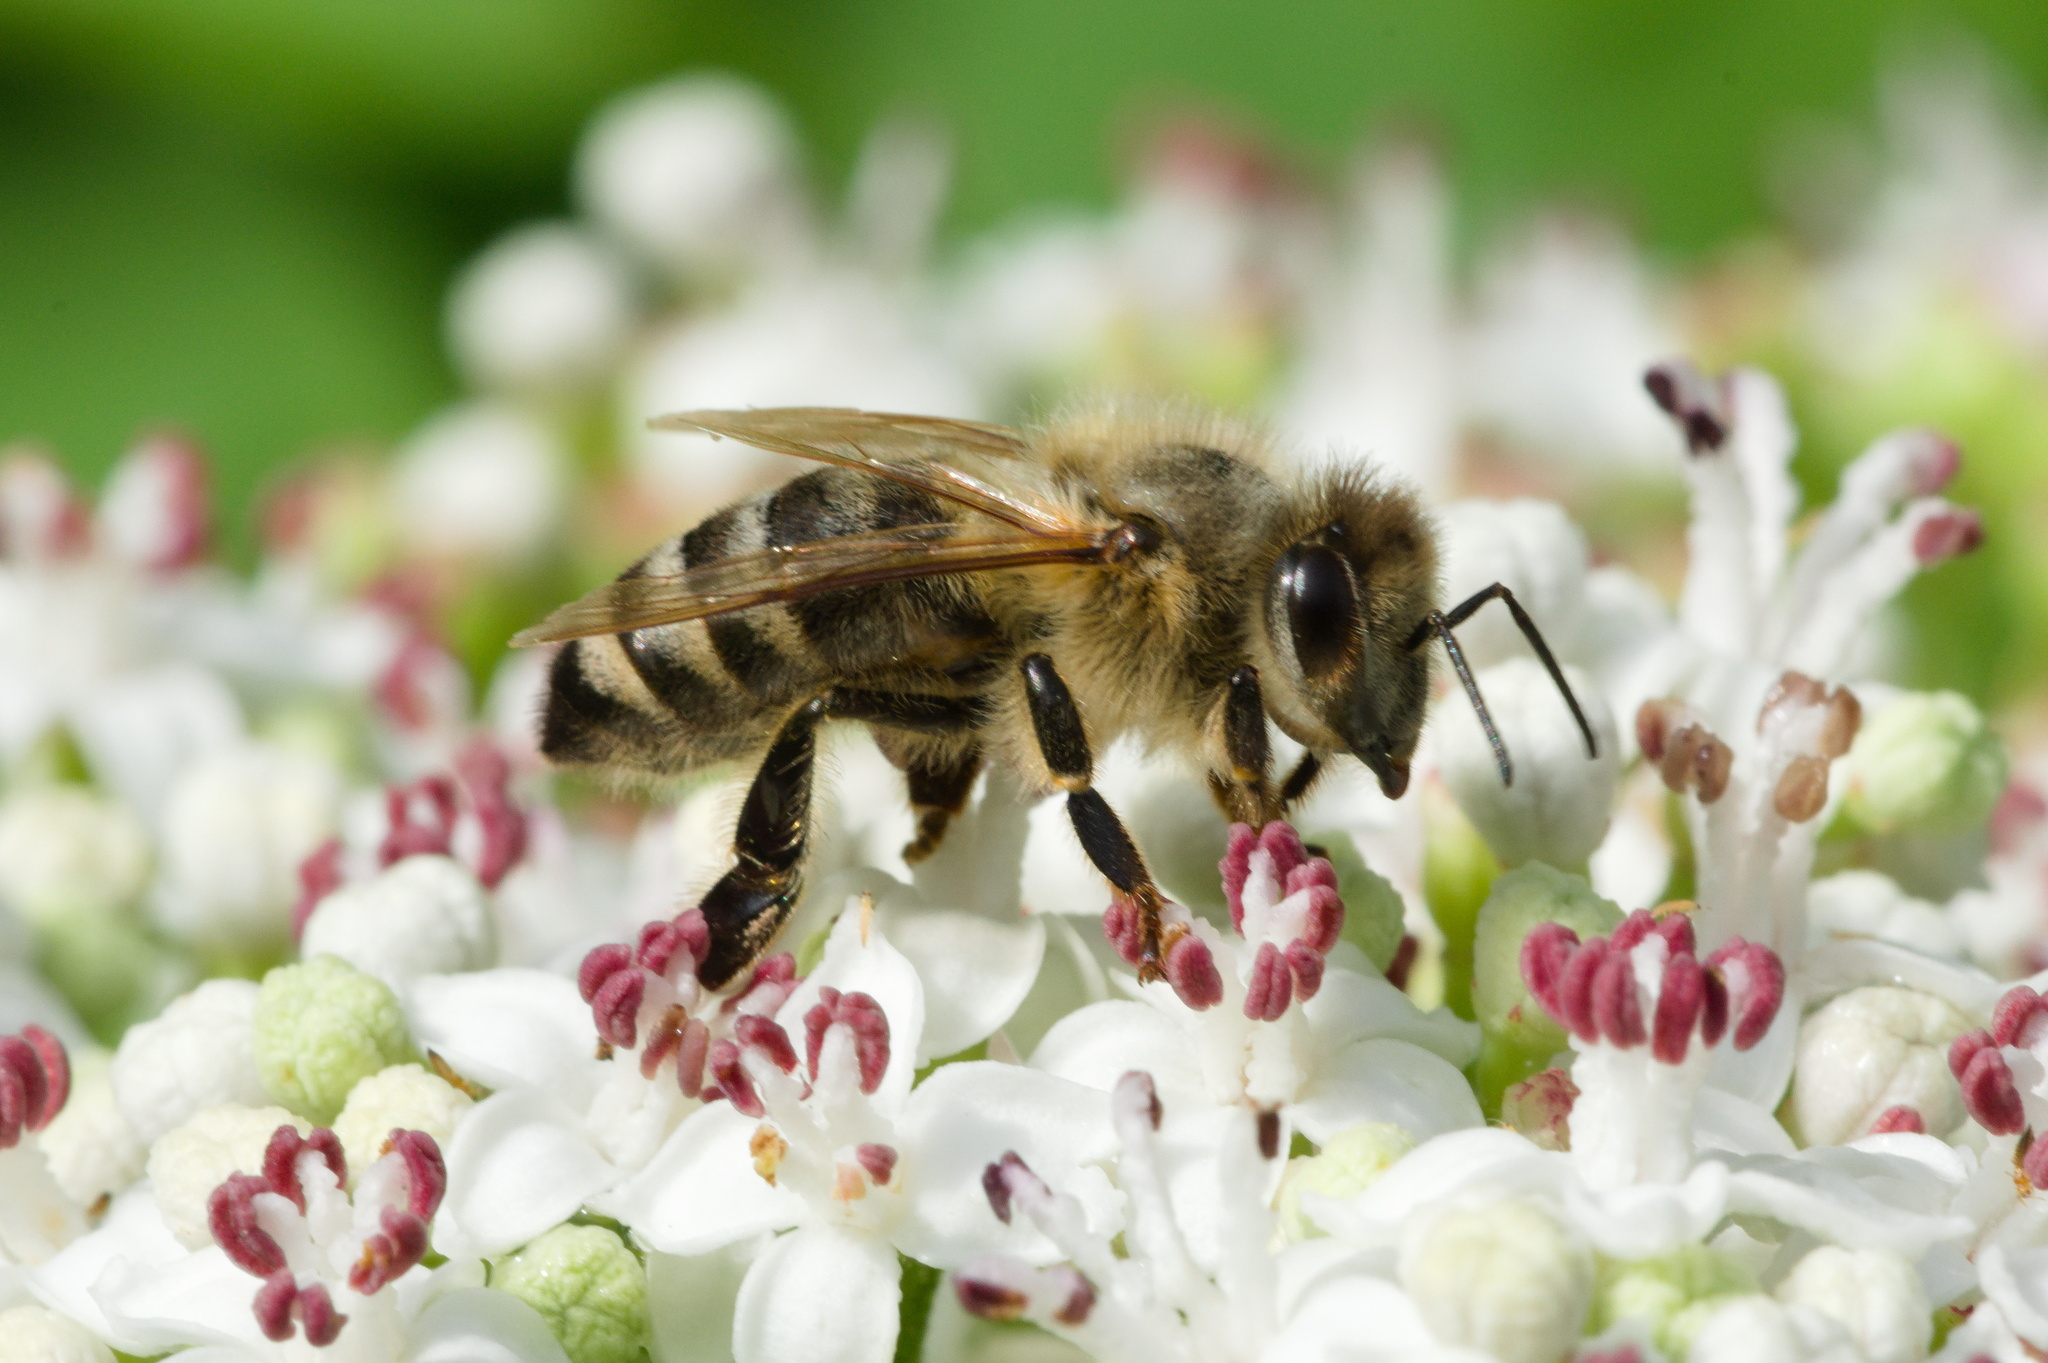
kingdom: Animalia
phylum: Arthropoda
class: Insecta
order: Hymenoptera
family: Apidae
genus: Apis
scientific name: Apis mellifera
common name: Honey bee
